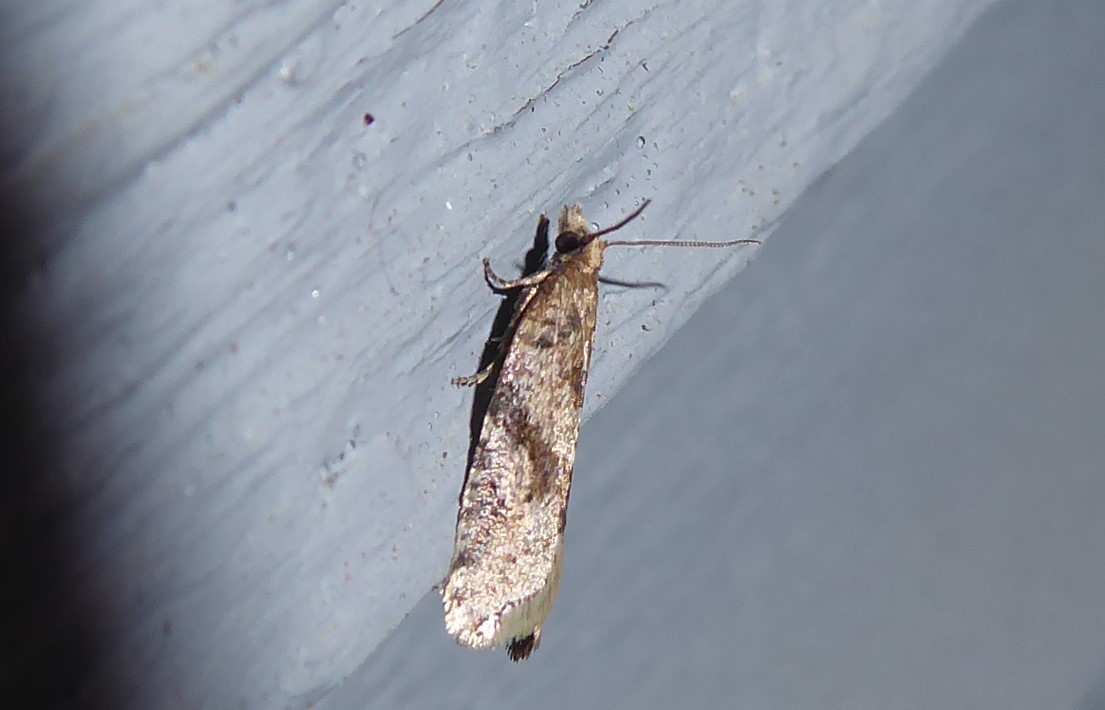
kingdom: Animalia
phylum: Arthropoda
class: Insecta
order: Lepidoptera
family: Tortricidae
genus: Capua
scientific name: Capua semiferana
